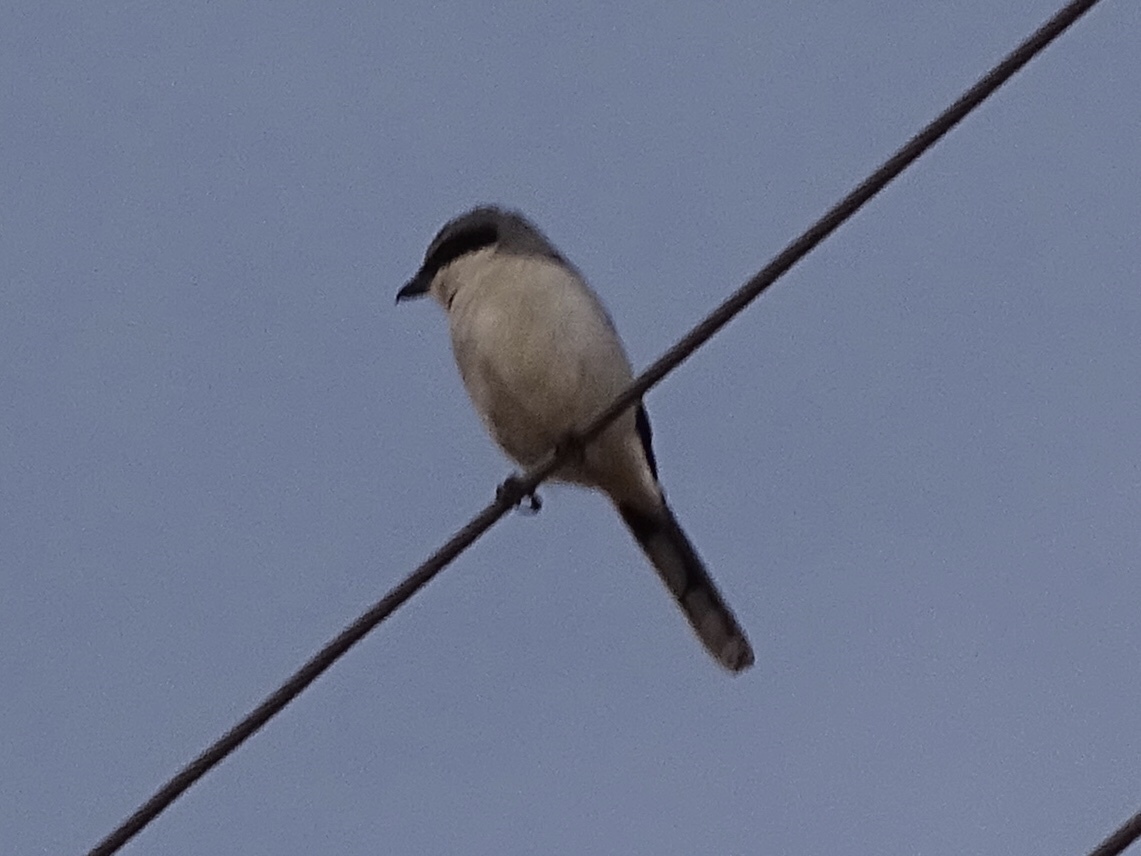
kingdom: Animalia
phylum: Chordata
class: Aves
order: Passeriformes
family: Laniidae
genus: Lanius
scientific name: Lanius ludovicianus
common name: Loggerhead shrike
